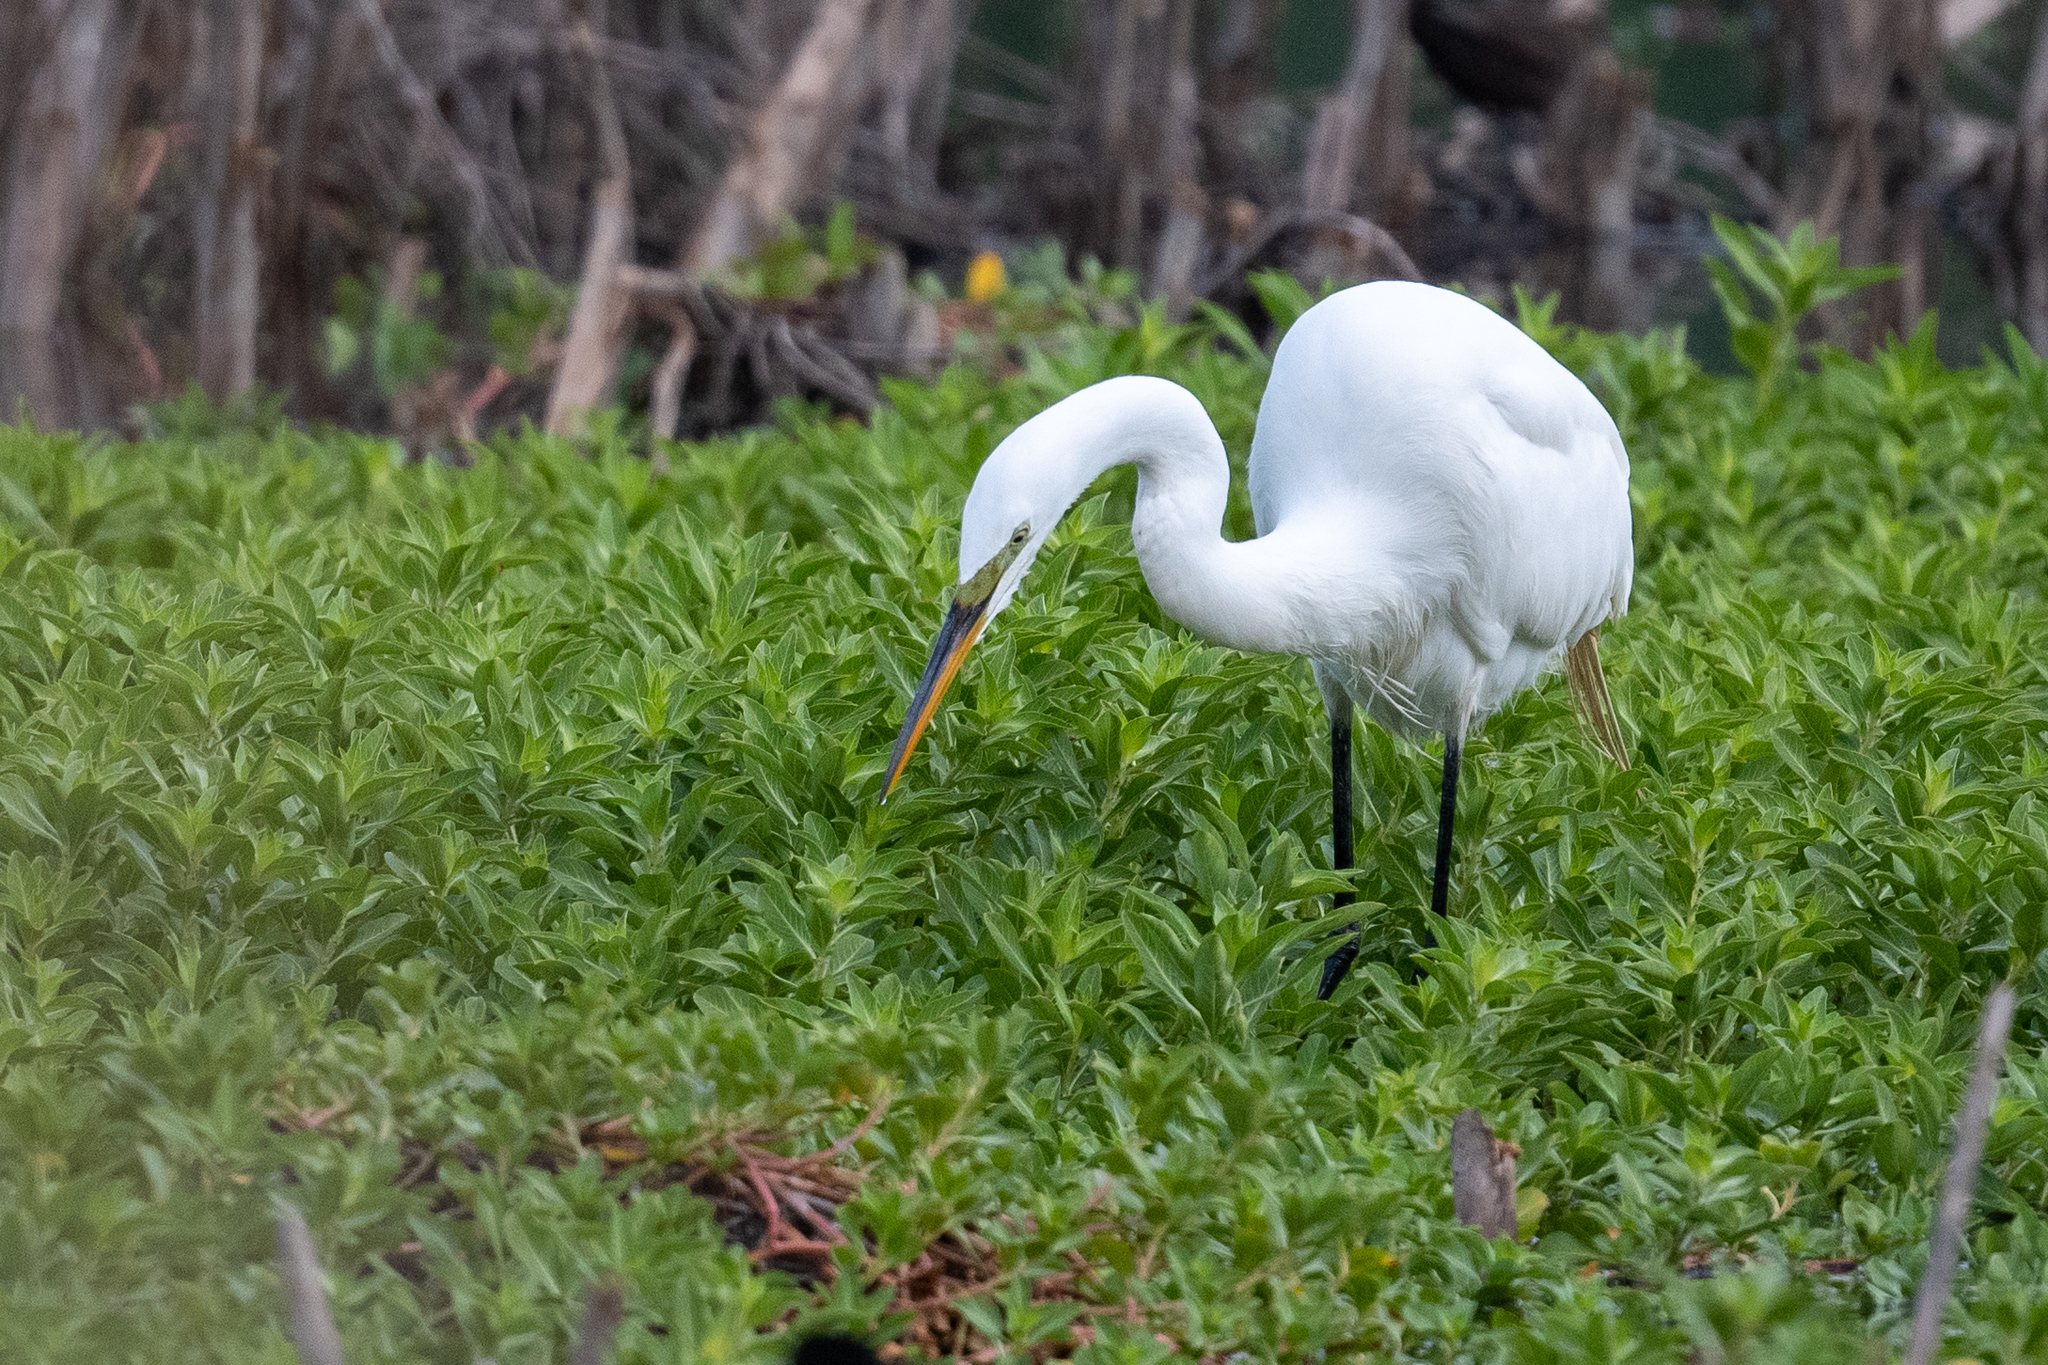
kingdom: Animalia
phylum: Chordata
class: Aves
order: Pelecaniformes
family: Ardeidae
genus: Ardea
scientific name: Ardea alba
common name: Great egret
